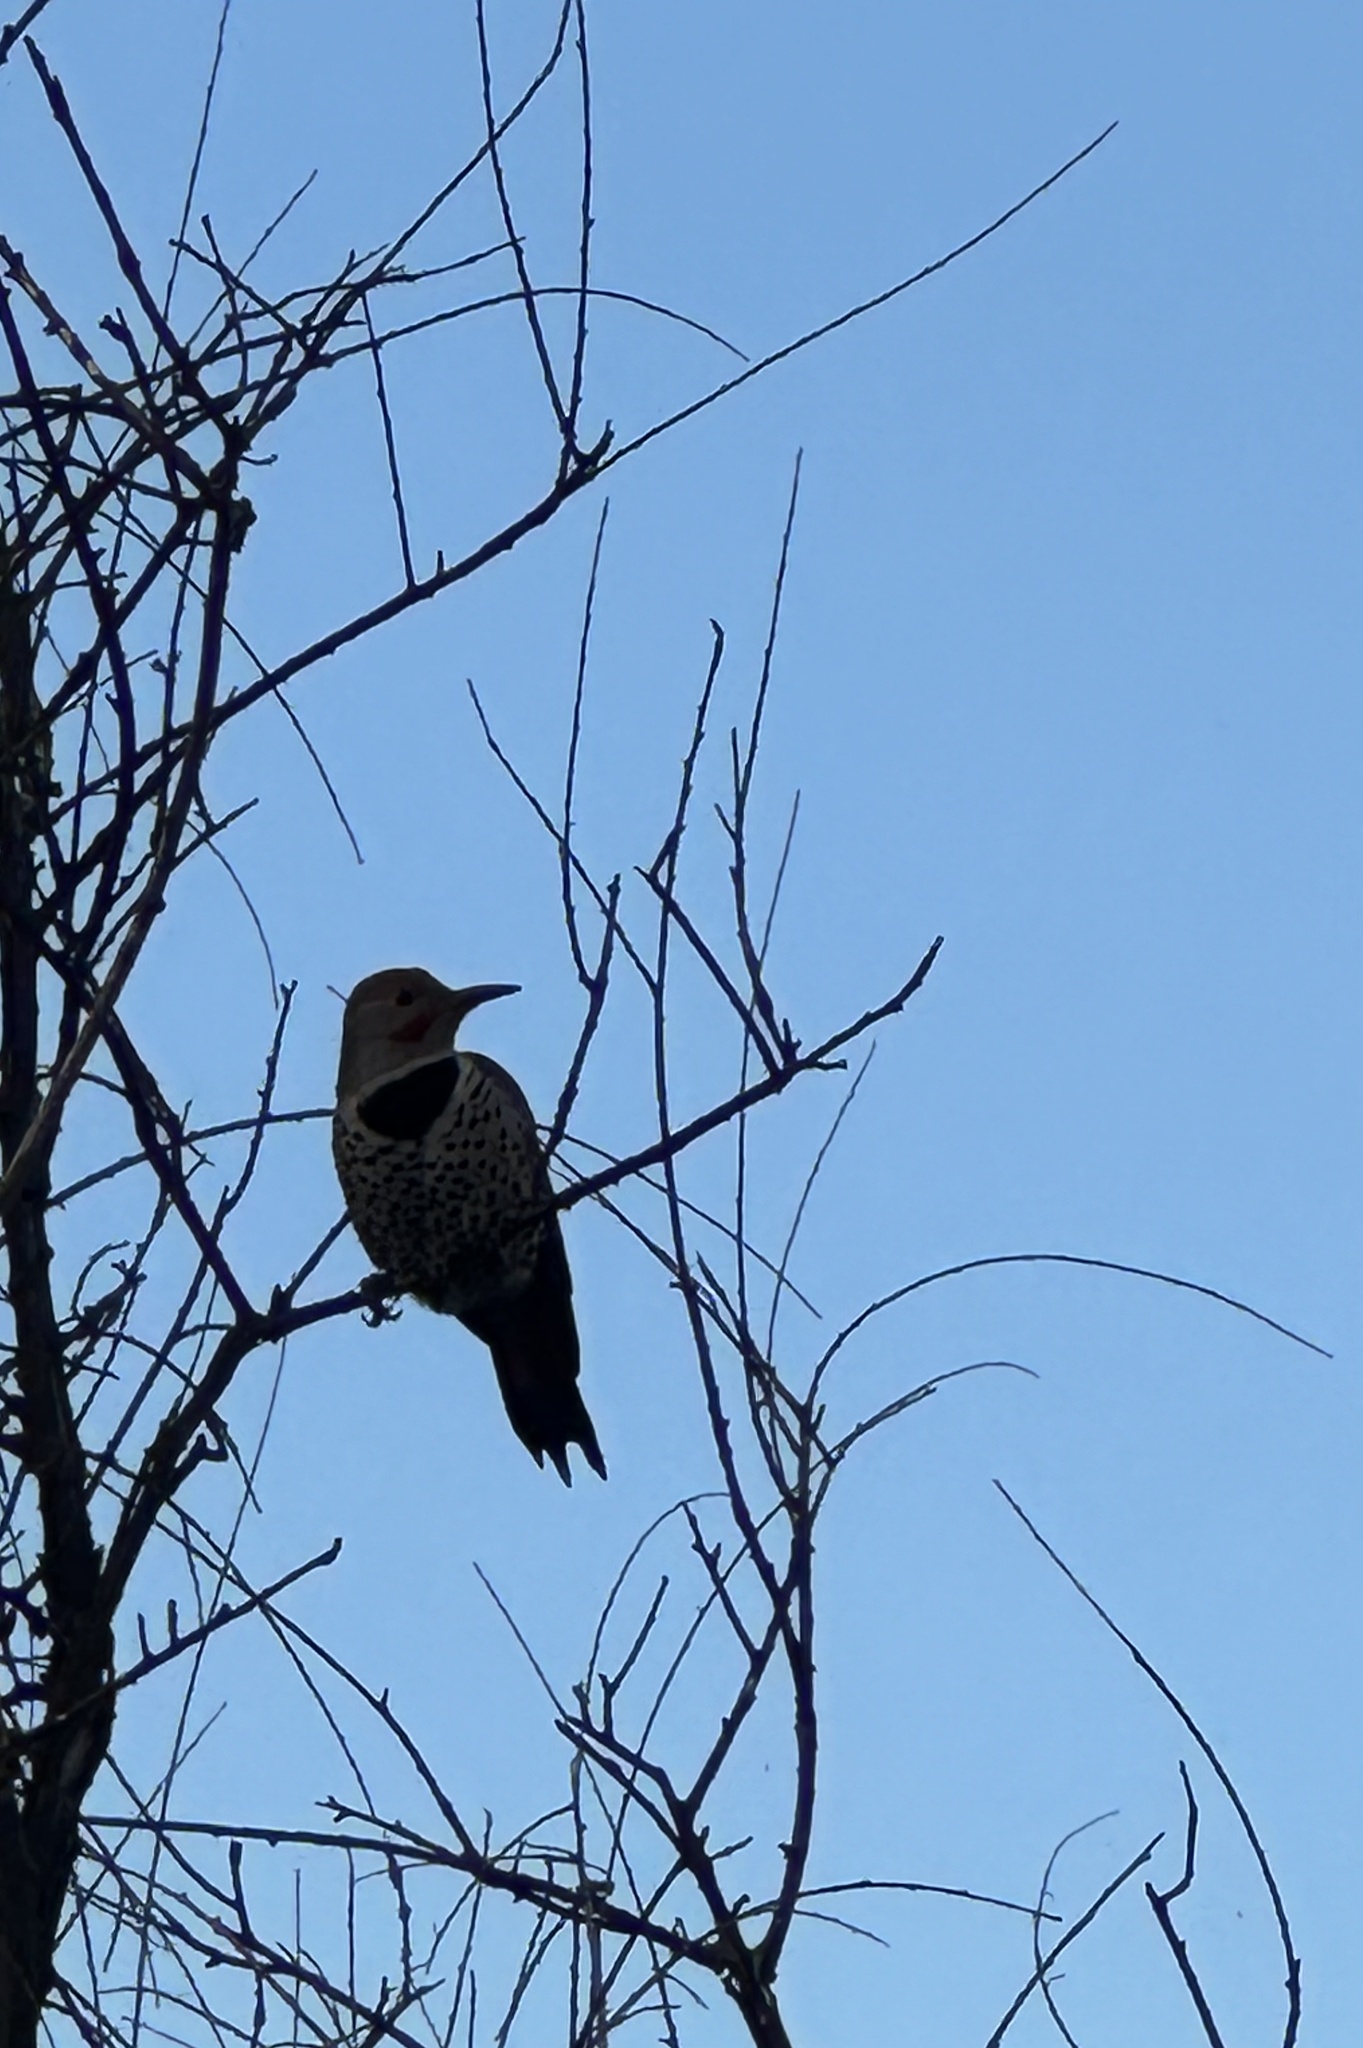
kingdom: Animalia
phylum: Chordata
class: Aves
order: Piciformes
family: Picidae
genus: Colaptes
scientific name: Colaptes auratus
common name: Northern flicker
